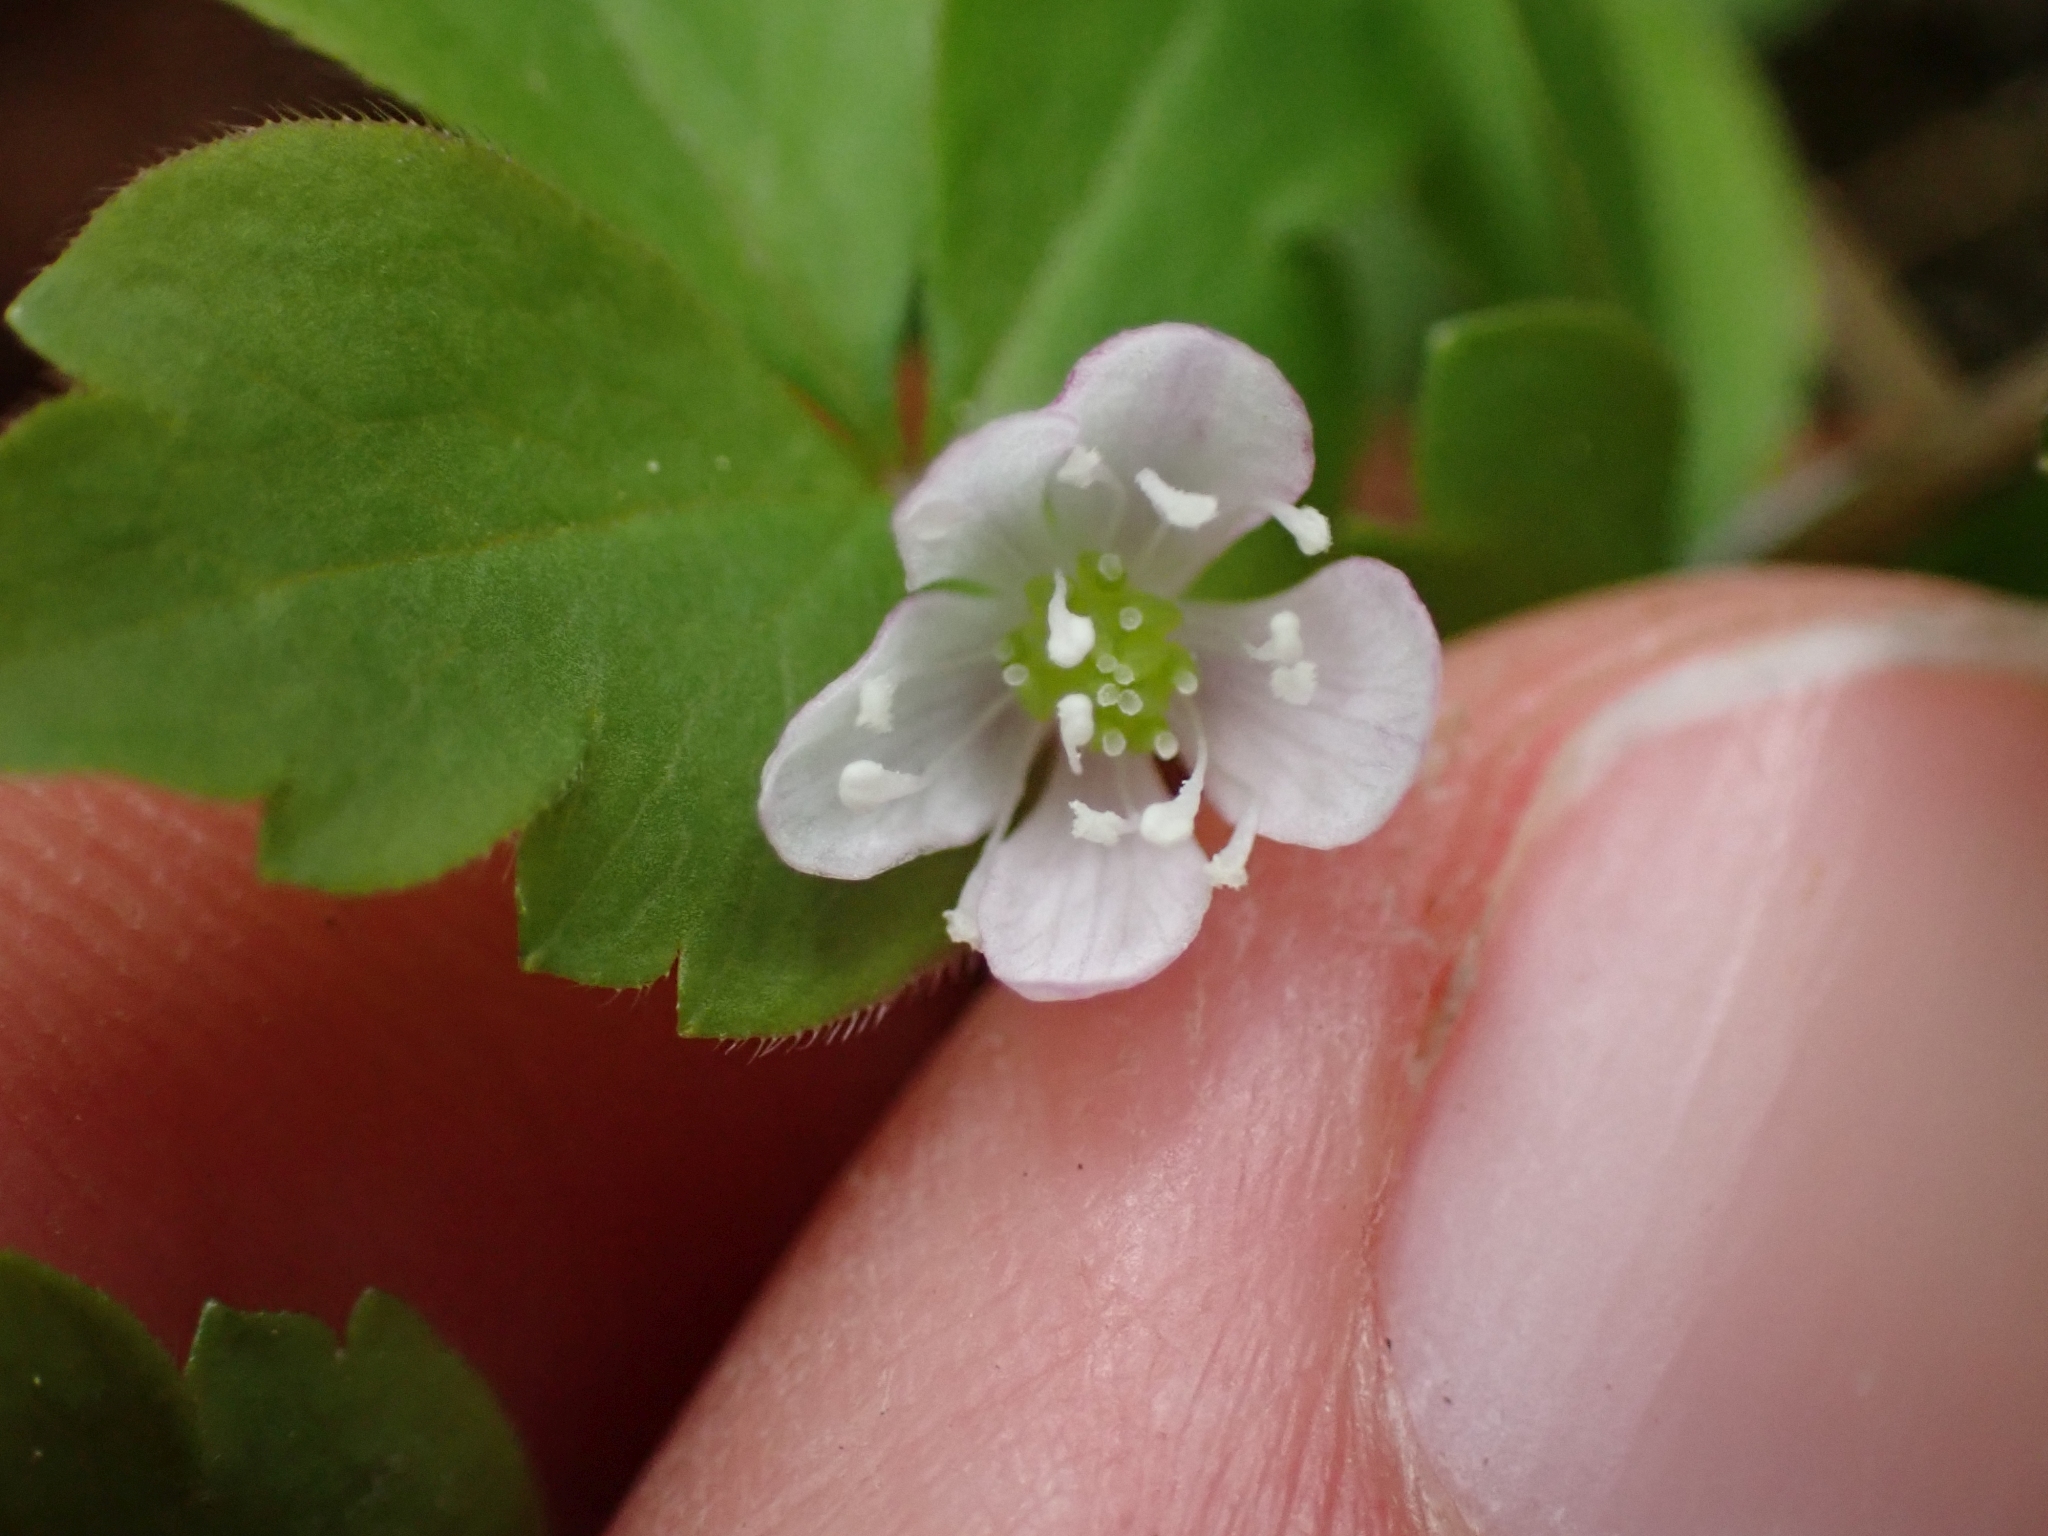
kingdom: Plantae
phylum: Tracheophyta
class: Magnoliopsida
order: Ranunculales
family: Ranunculaceae
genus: Anemone
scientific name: Anemone
